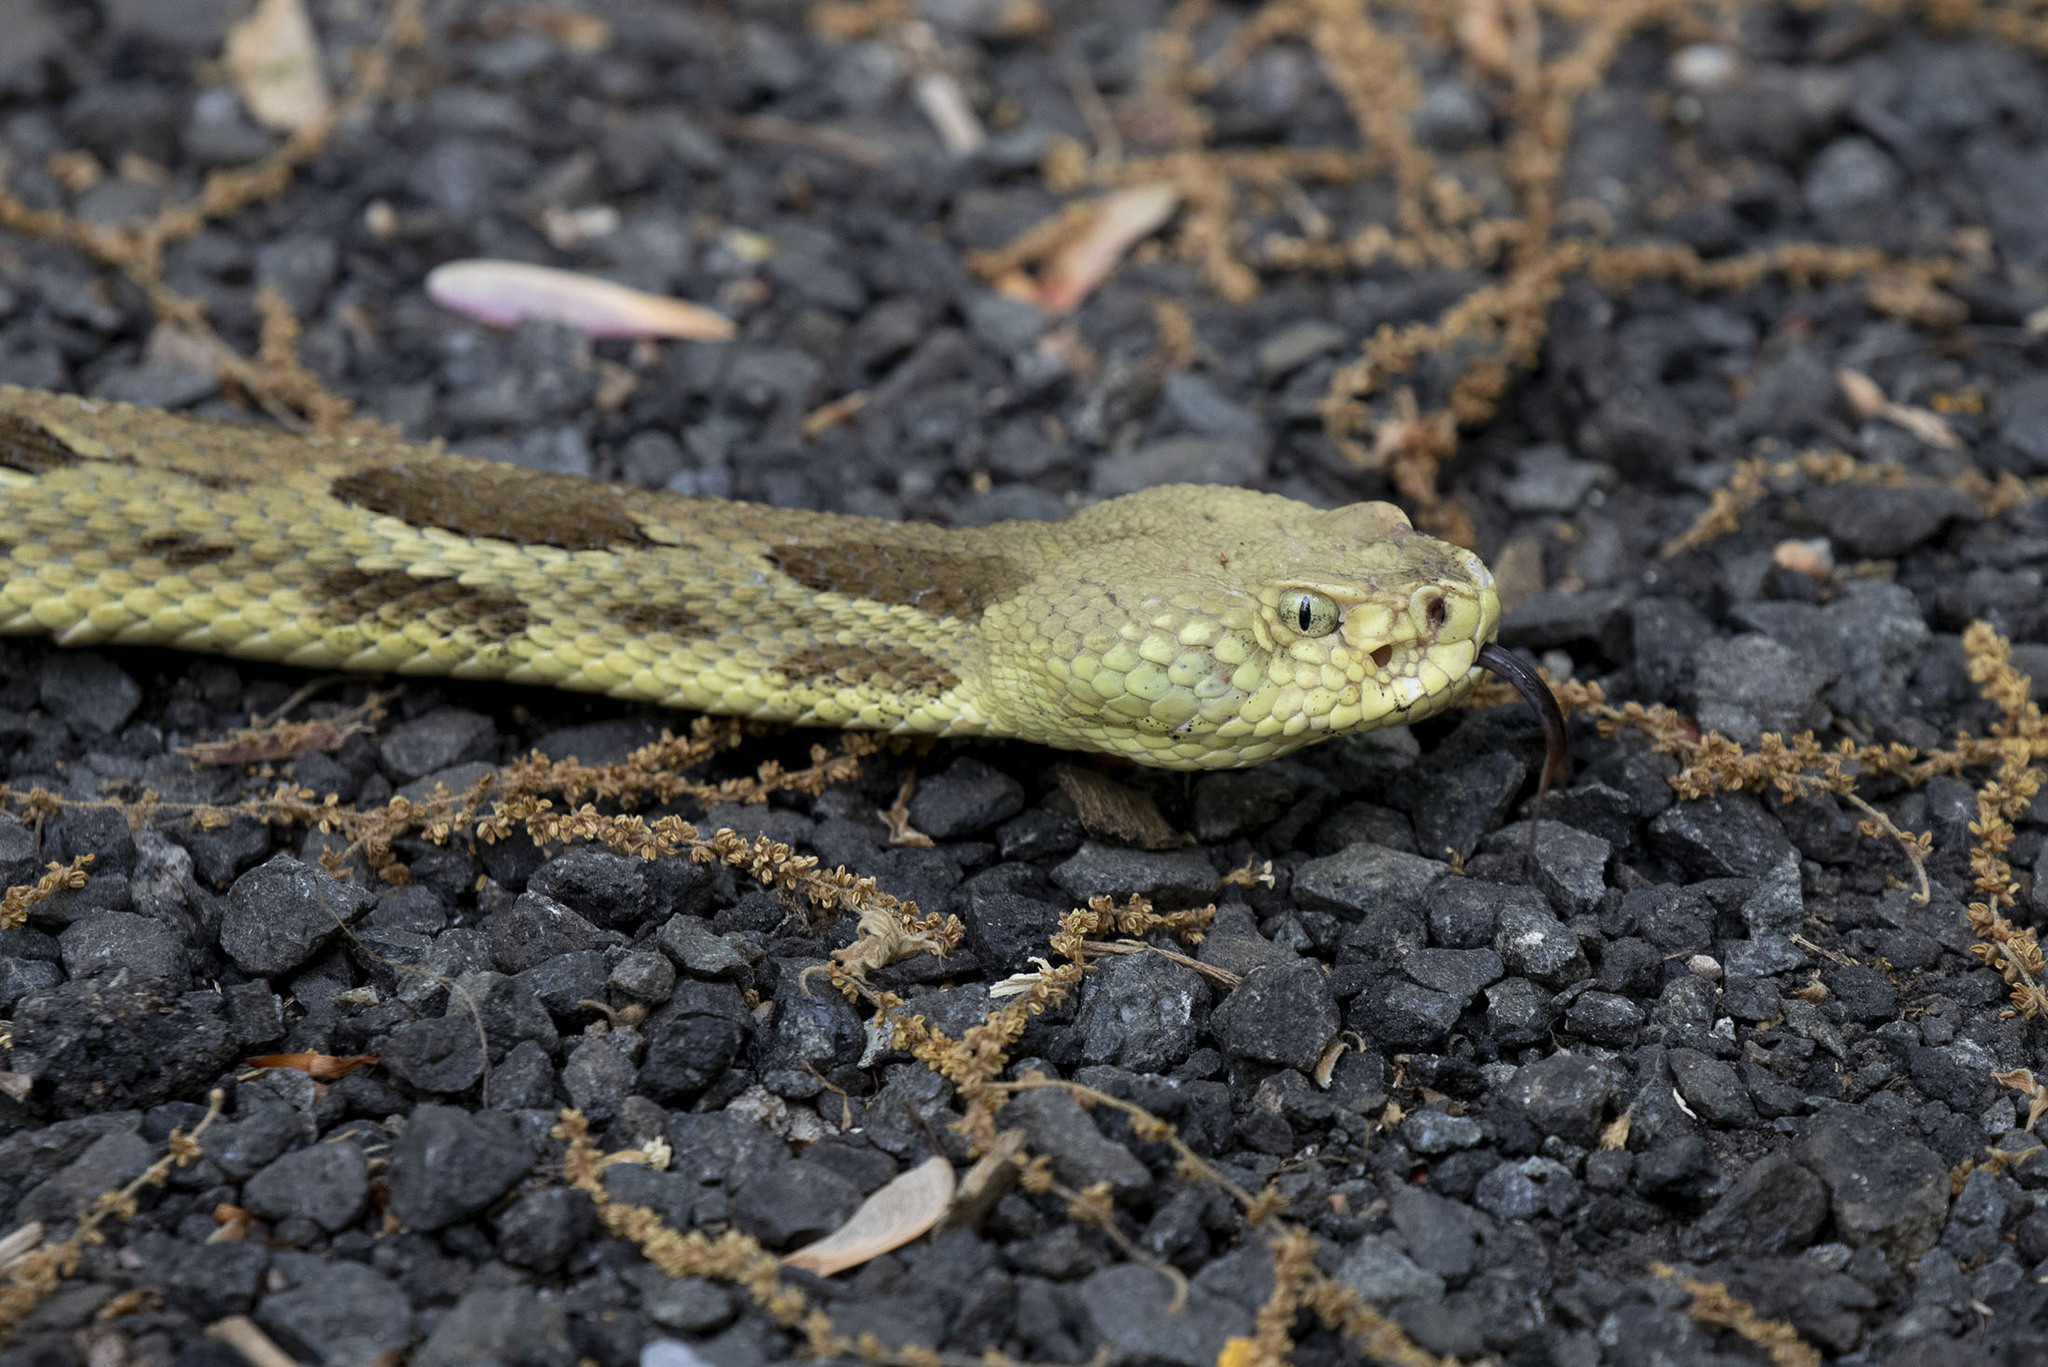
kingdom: Animalia
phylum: Chordata
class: Squamata
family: Viperidae
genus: Crotalus
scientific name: Crotalus horridus
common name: Timber rattlesnake
